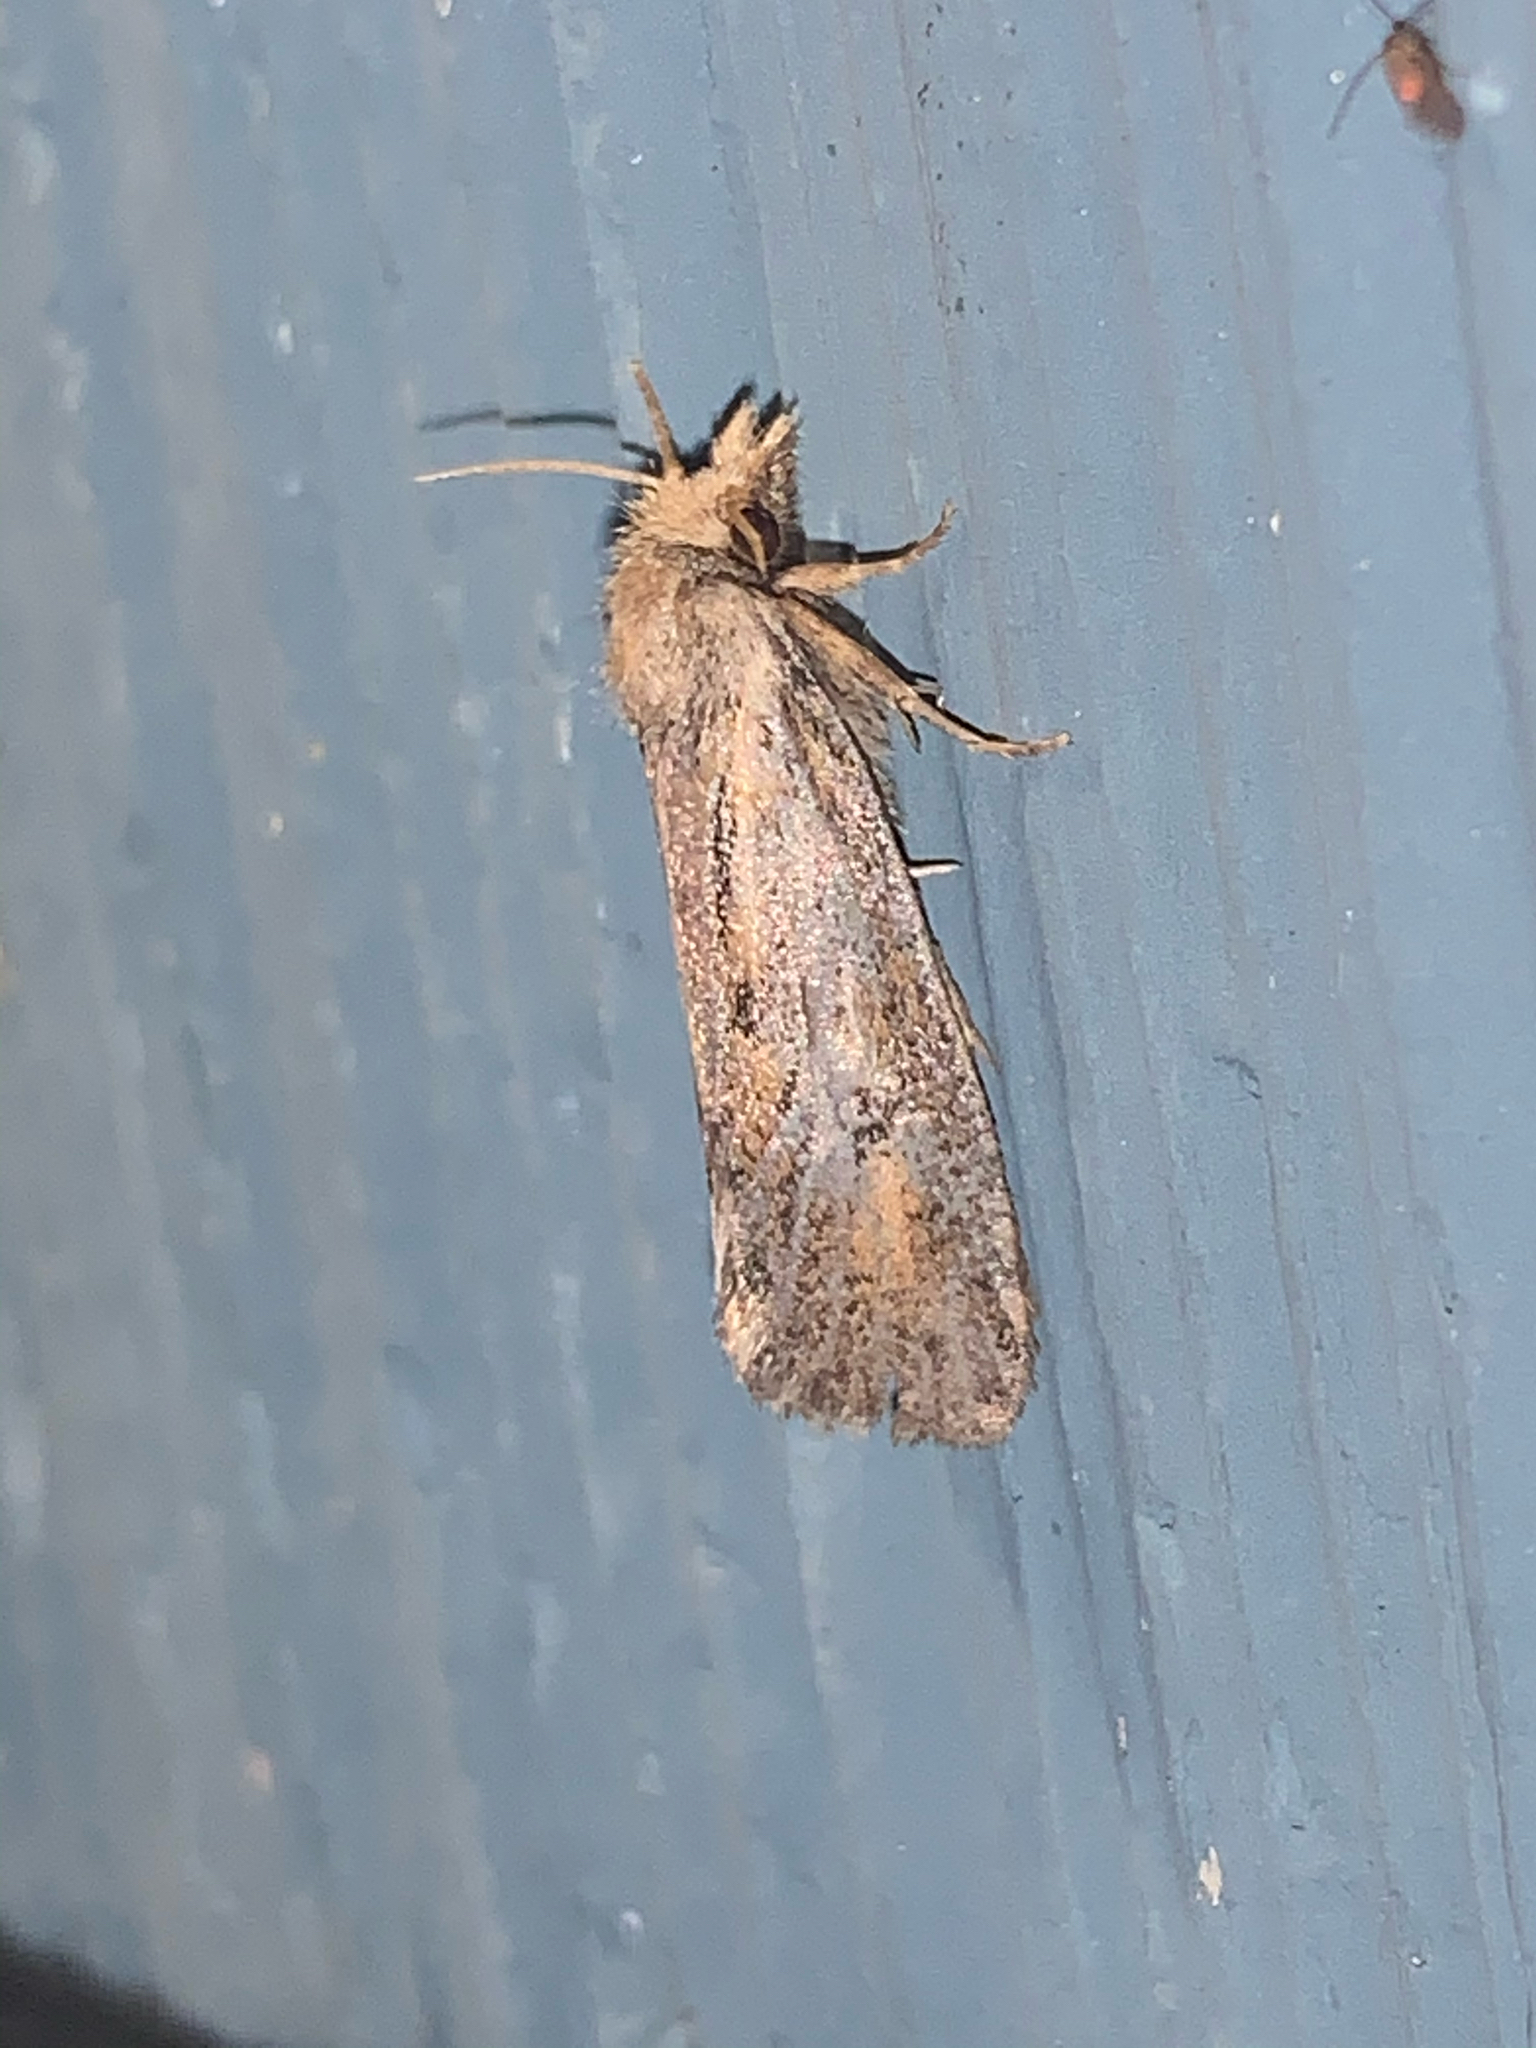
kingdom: Animalia
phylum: Arthropoda
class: Insecta
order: Lepidoptera
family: Tineidae
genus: Acrolophus
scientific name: Acrolophus popeanella
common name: Clemens' grass tubeworm moth
